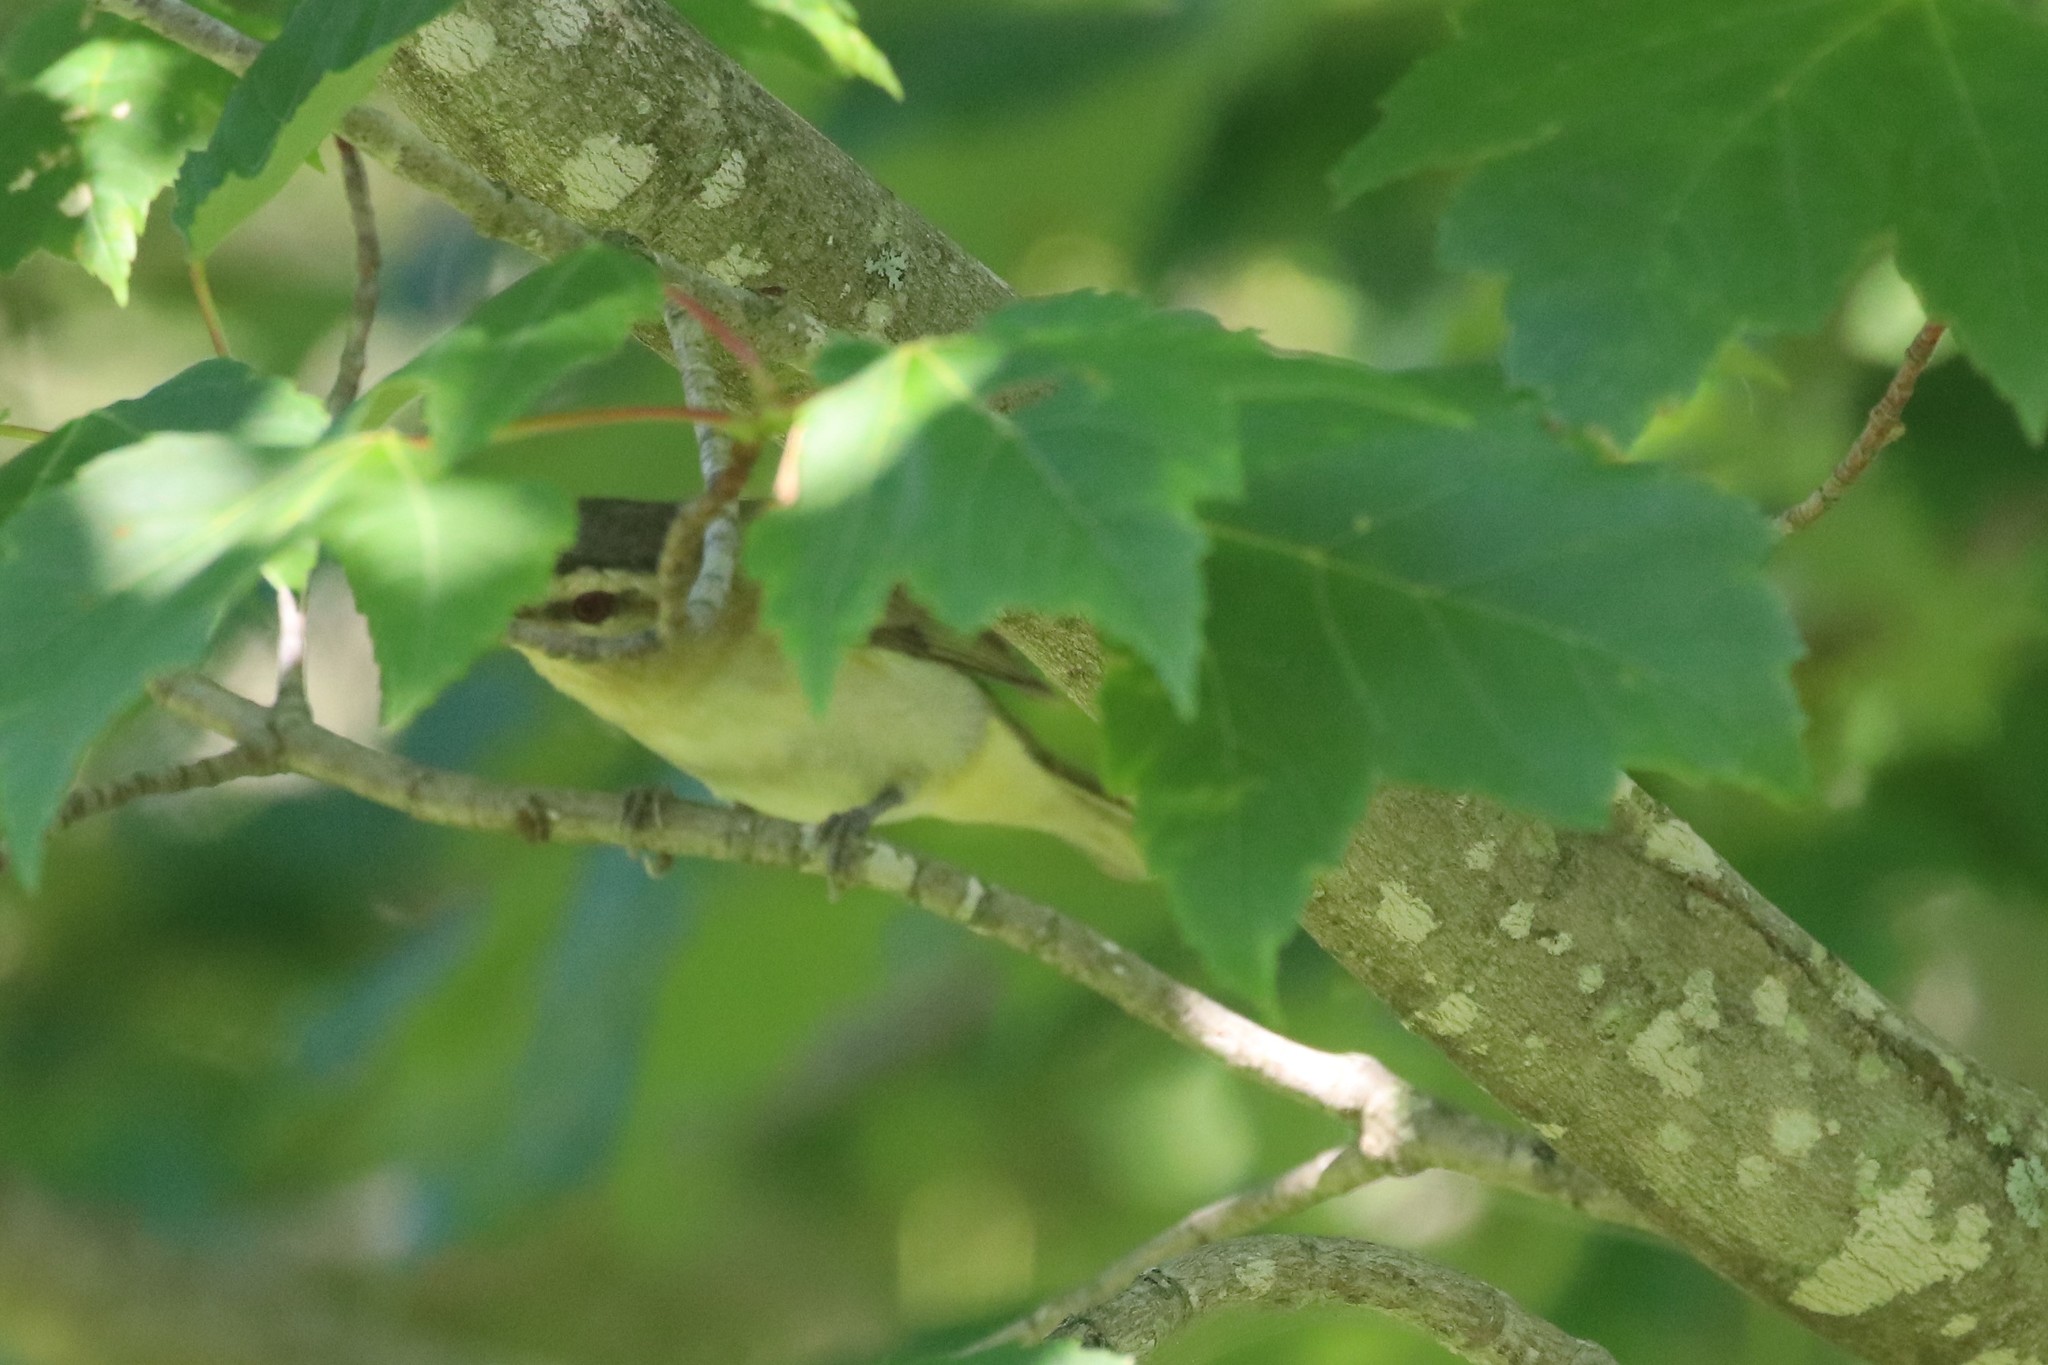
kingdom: Animalia
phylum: Chordata
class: Aves
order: Passeriformes
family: Vireonidae
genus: Vireo
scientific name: Vireo olivaceus
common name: Red-eyed vireo
